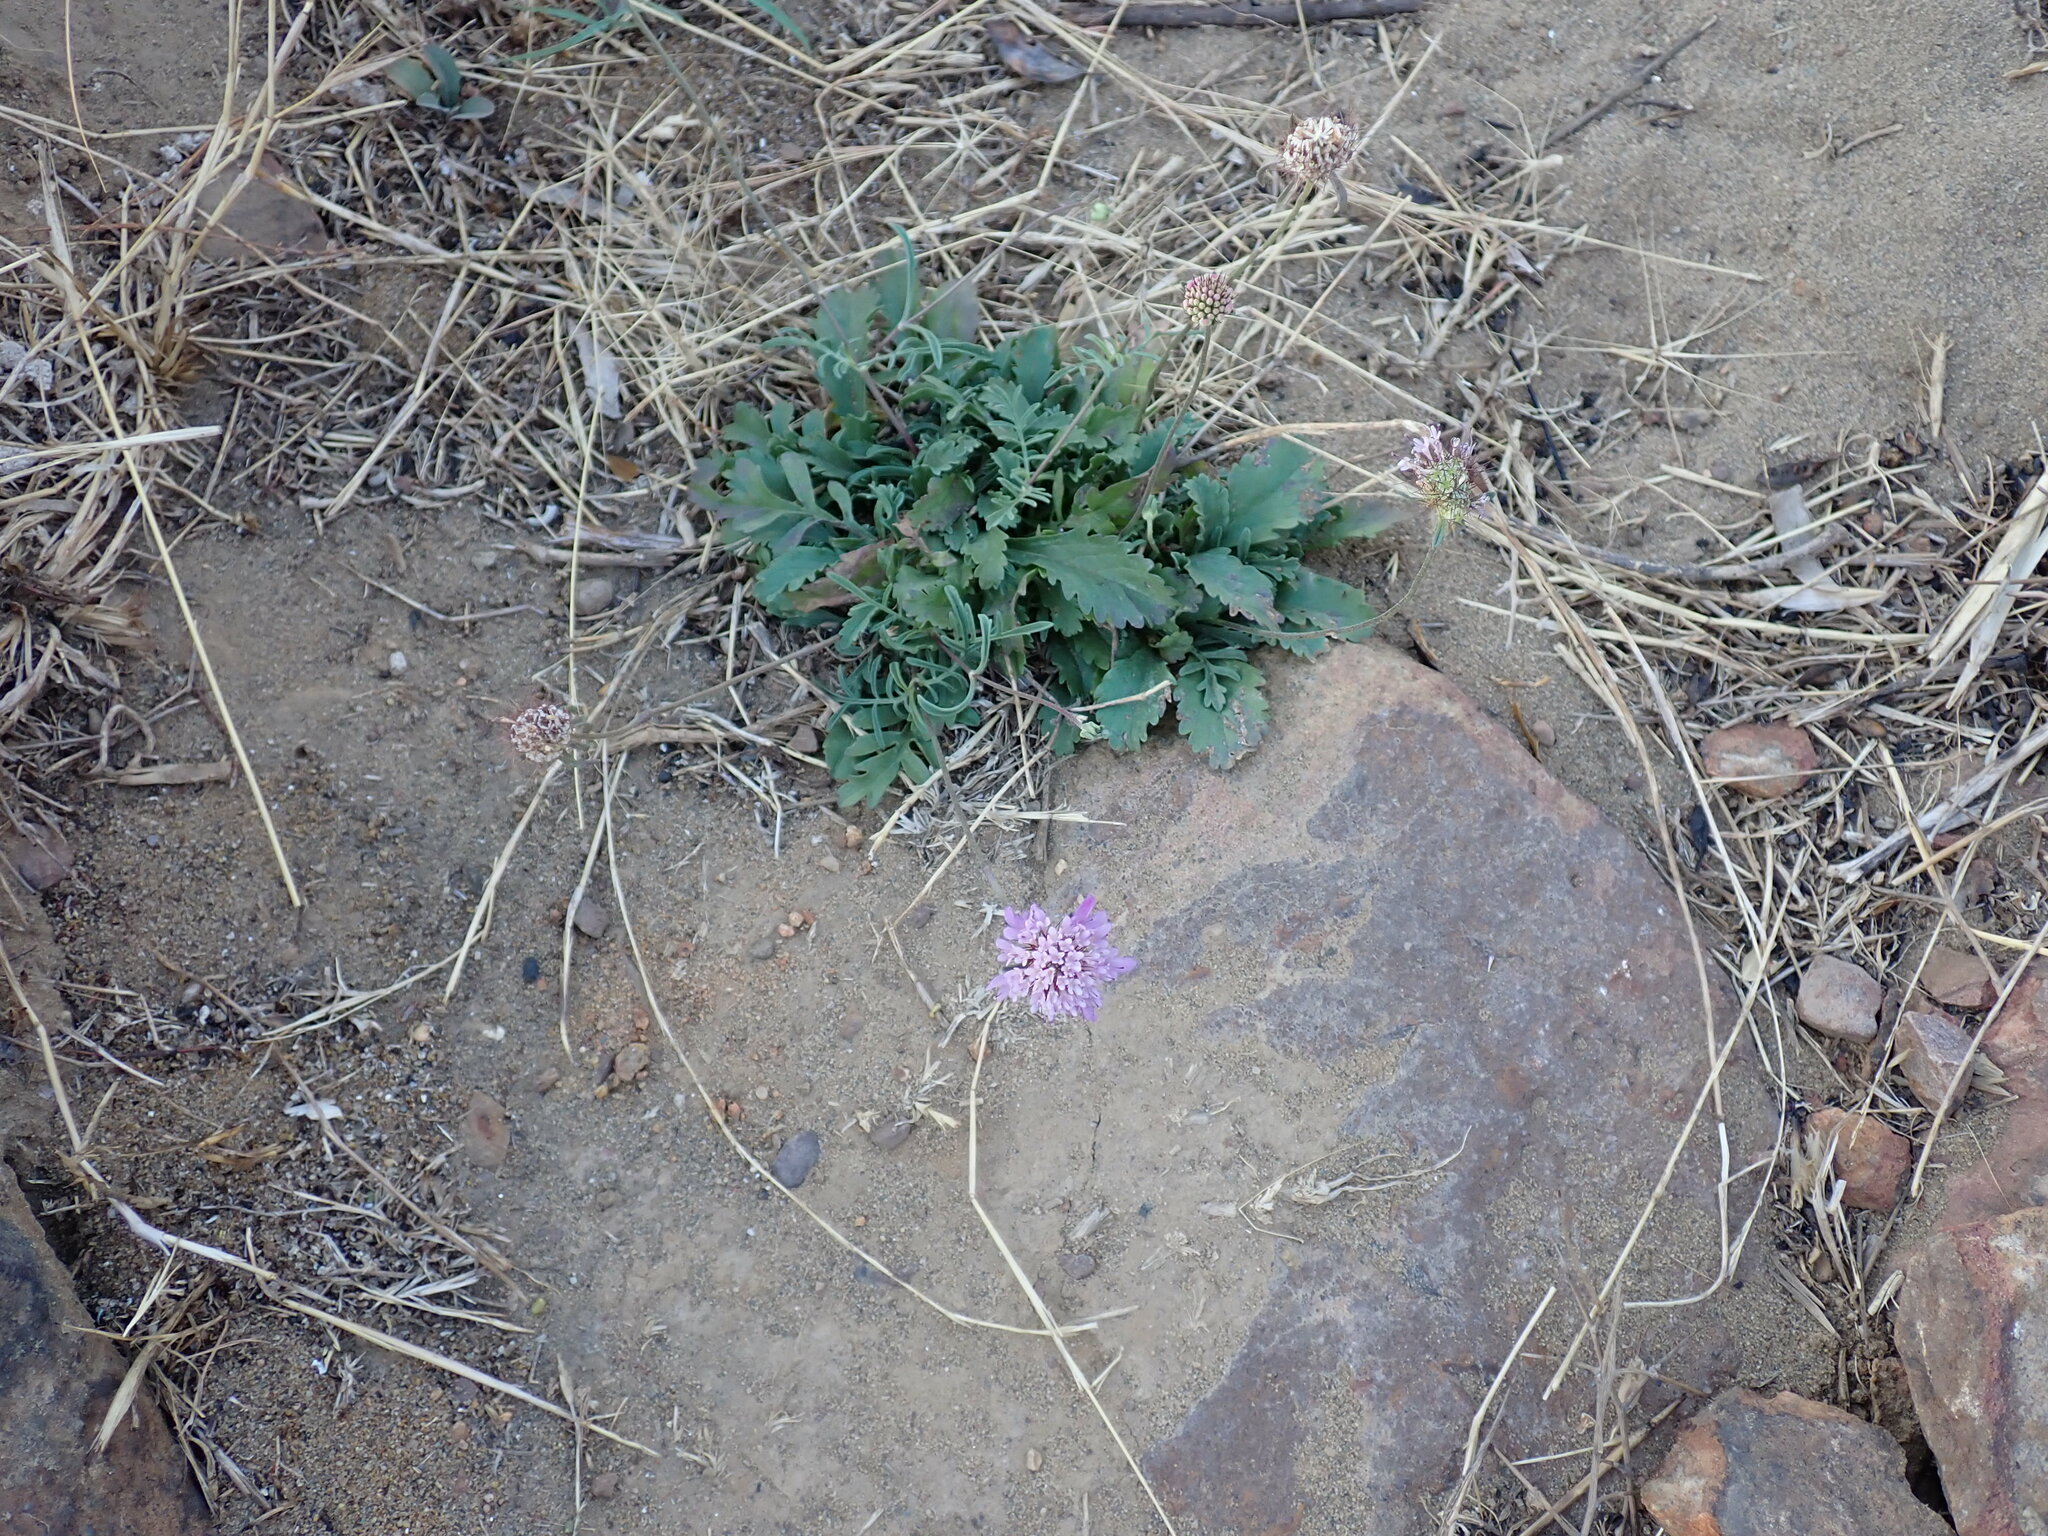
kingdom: Plantae
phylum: Tracheophyta
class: Magnoliopsida
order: Dipsacales
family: Caprifoliaceae
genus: Sixalix
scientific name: Sixalix atropurpurea
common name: Sweet scabious
